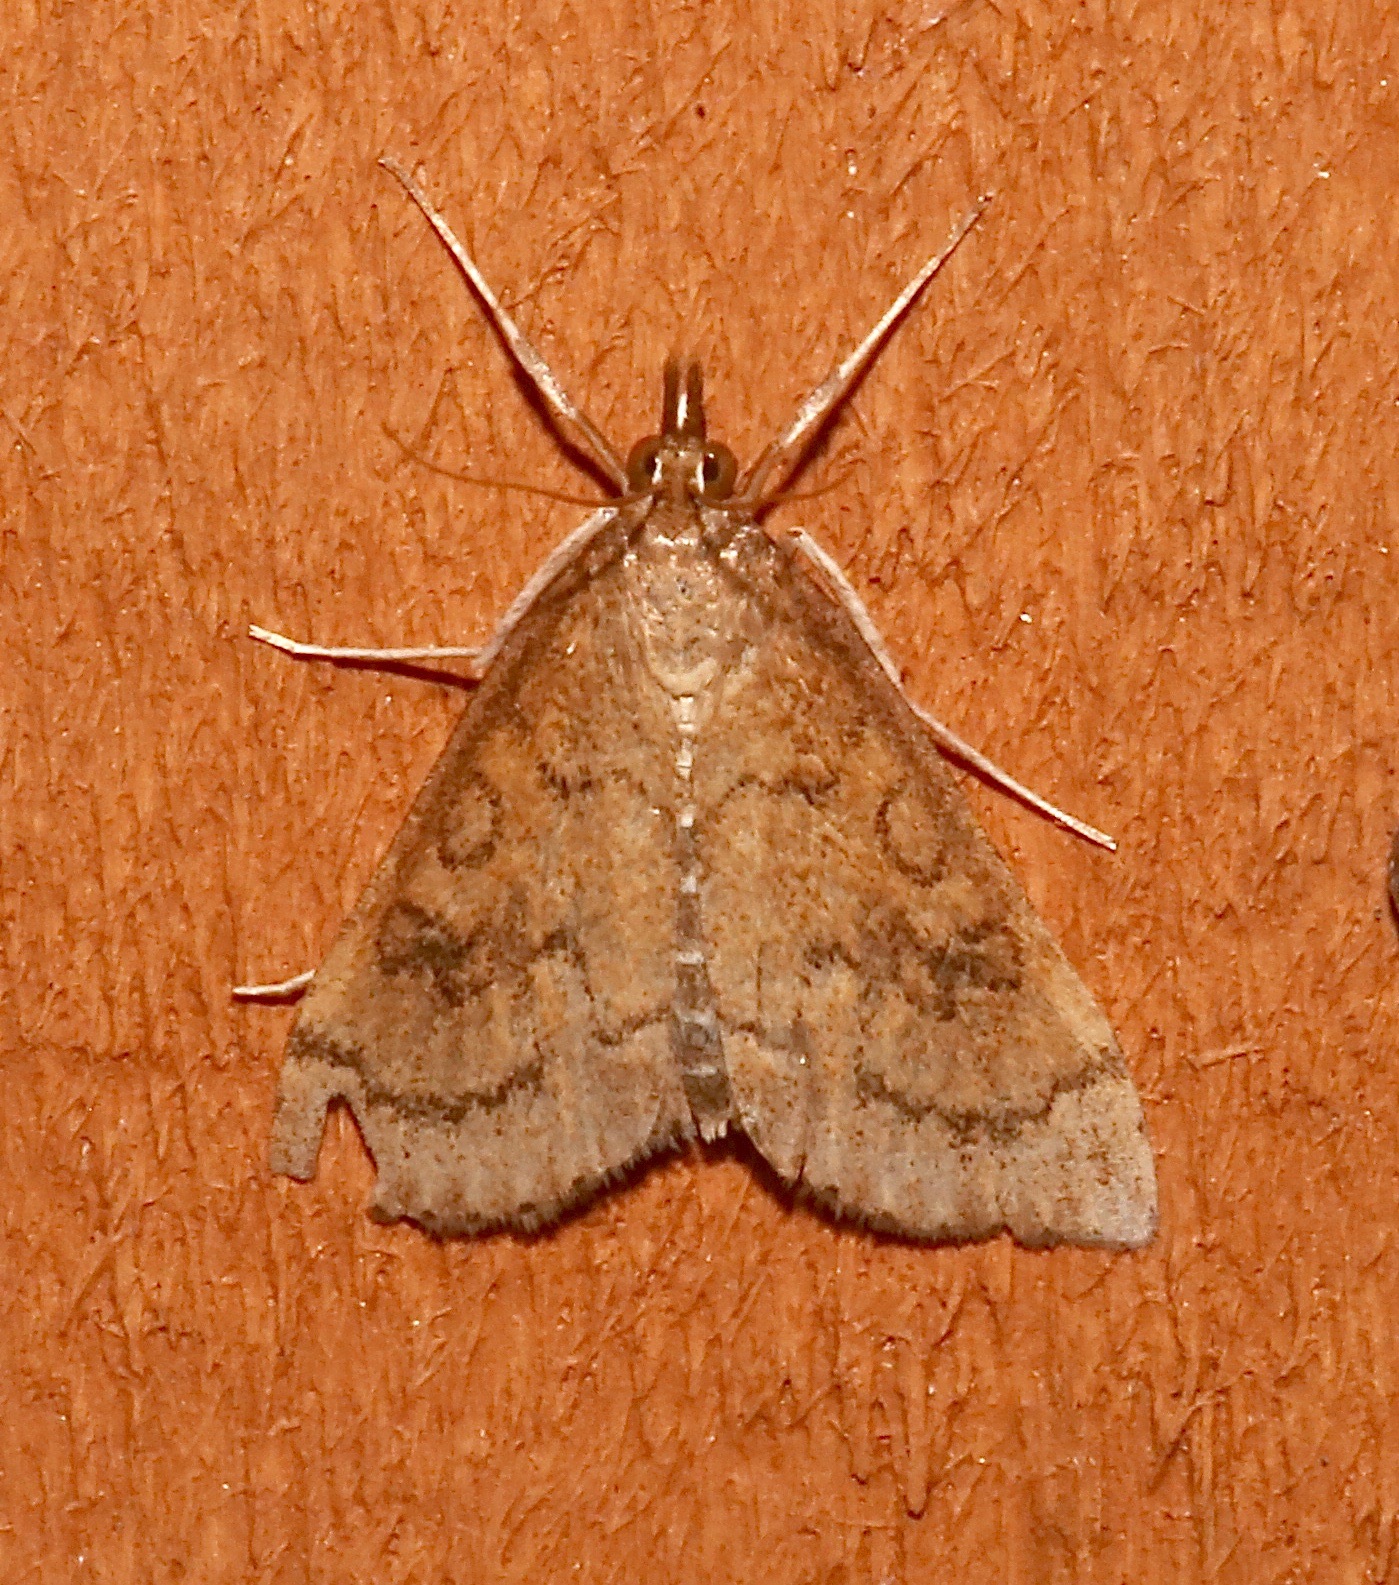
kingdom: Animalia
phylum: Arthropoda
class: Insecta
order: Lepidoptera
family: Crambidae
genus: Udea
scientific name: Udea rubigalis
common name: Celery leaftier moth
